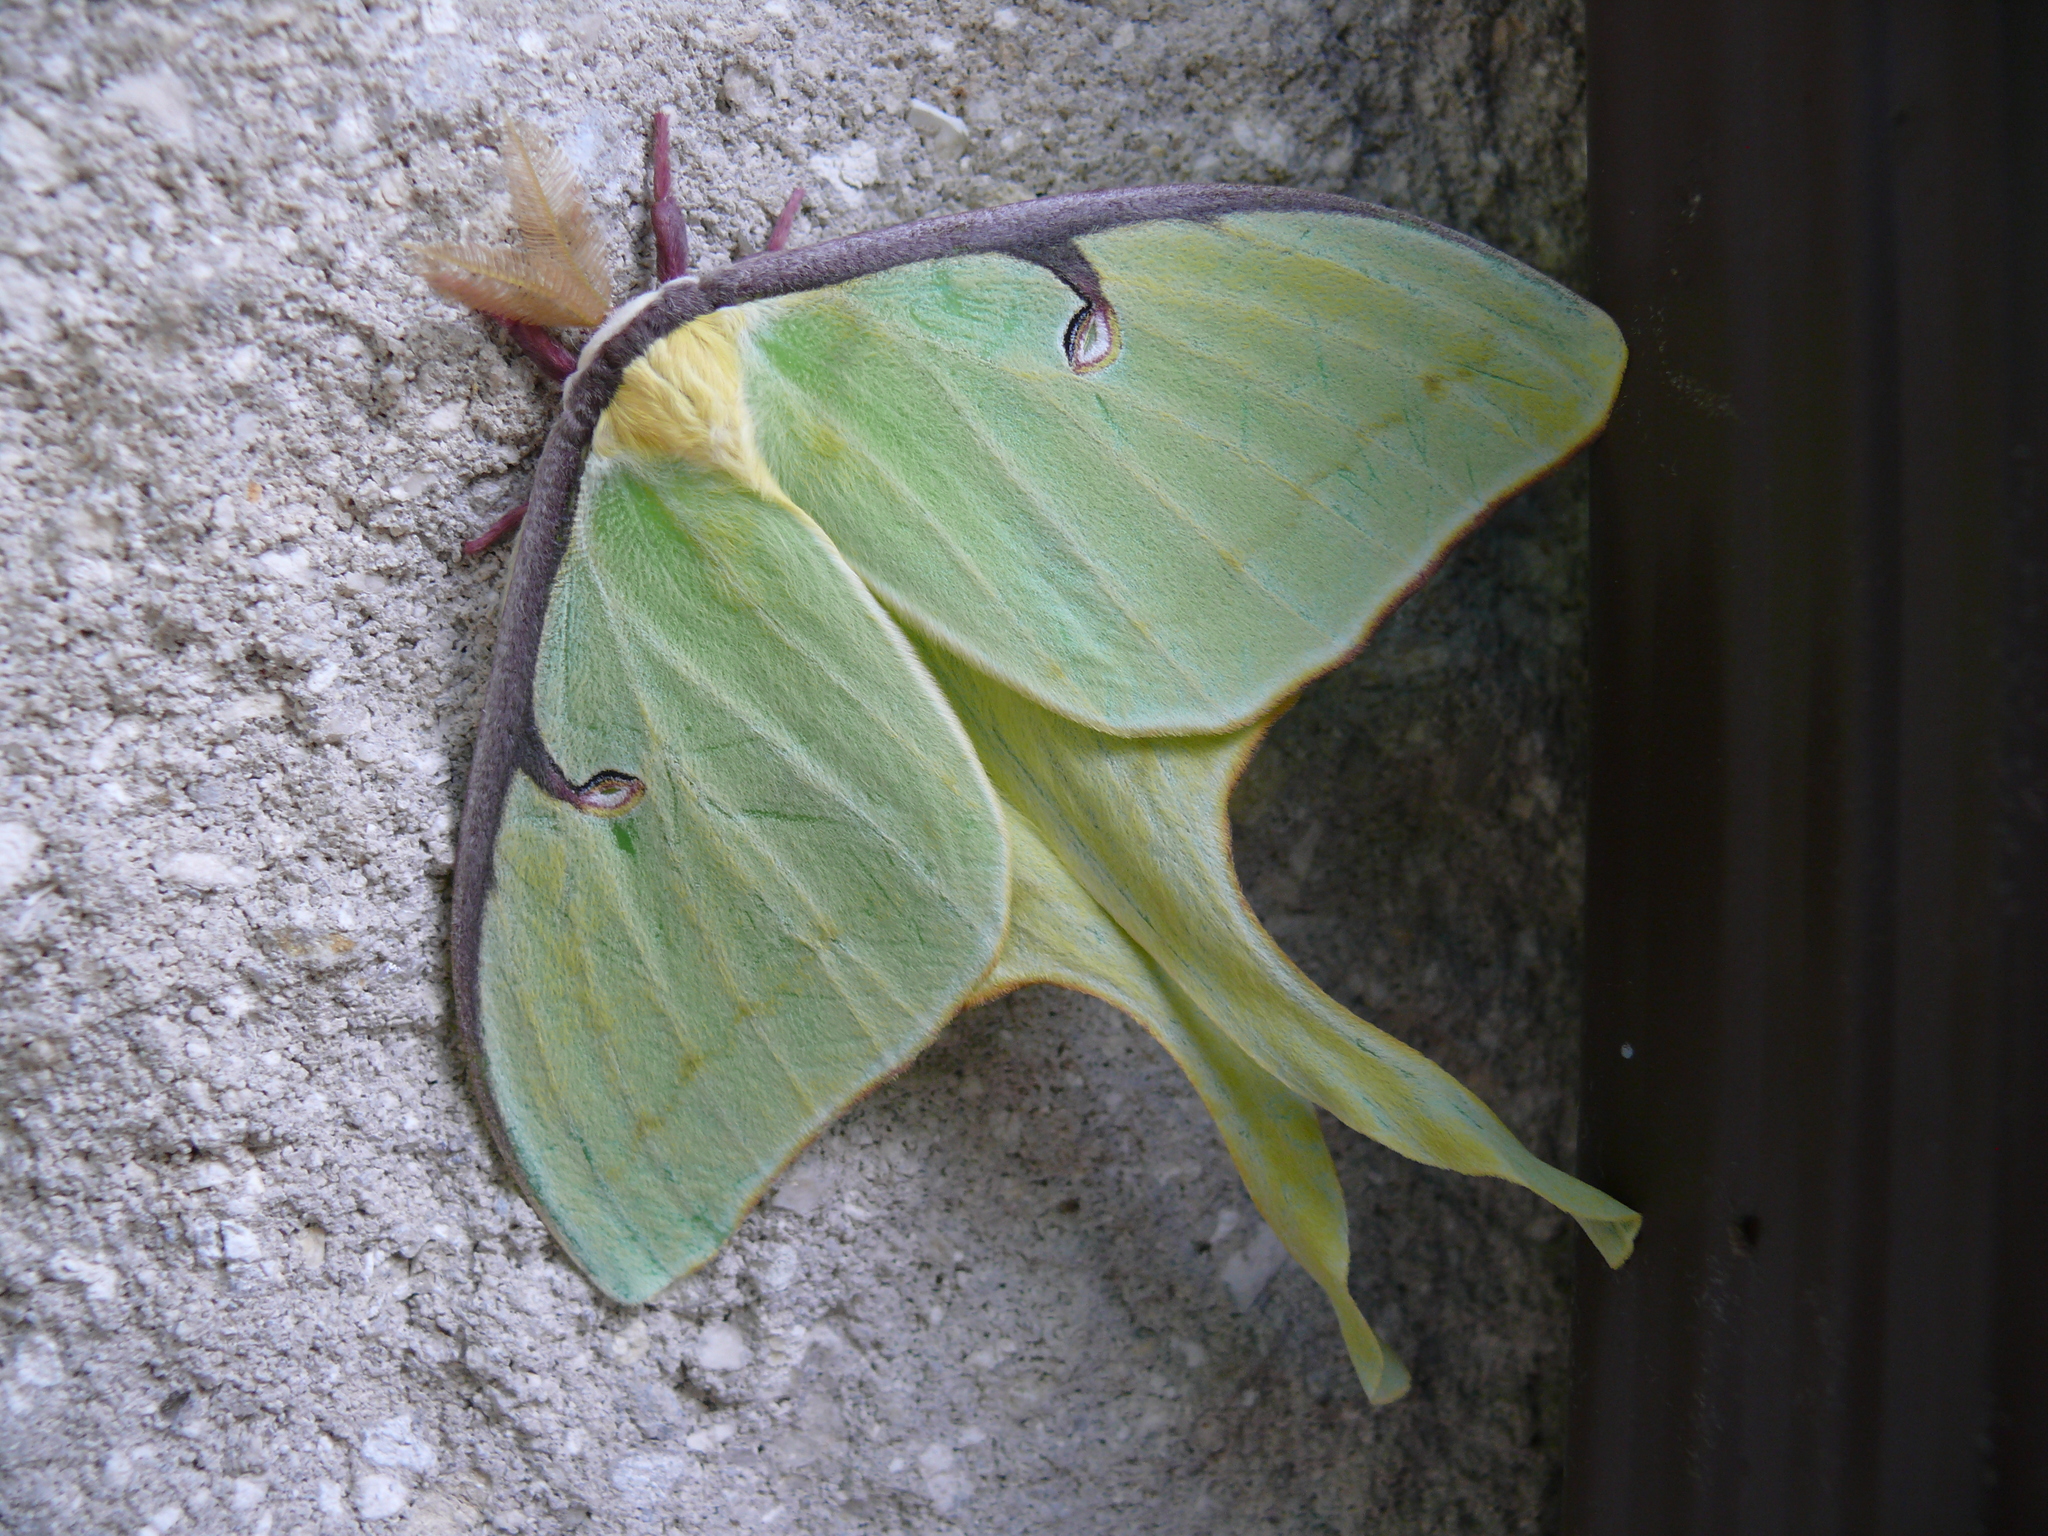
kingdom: Animalia
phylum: Arthropoda
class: Insecta
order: Lepidoptera
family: Saturniidae
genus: Actias
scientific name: Actias luna
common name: Luna moth
